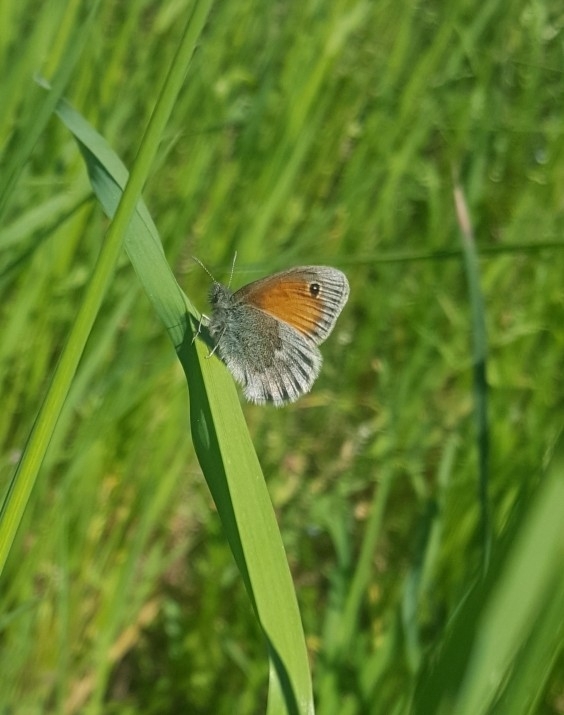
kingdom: Animalia
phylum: Arthropoda
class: Insecta
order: Lepidoptera
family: Nymphalidae
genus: Coenonympha
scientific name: Coenonympha pamphilus
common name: Small heath
